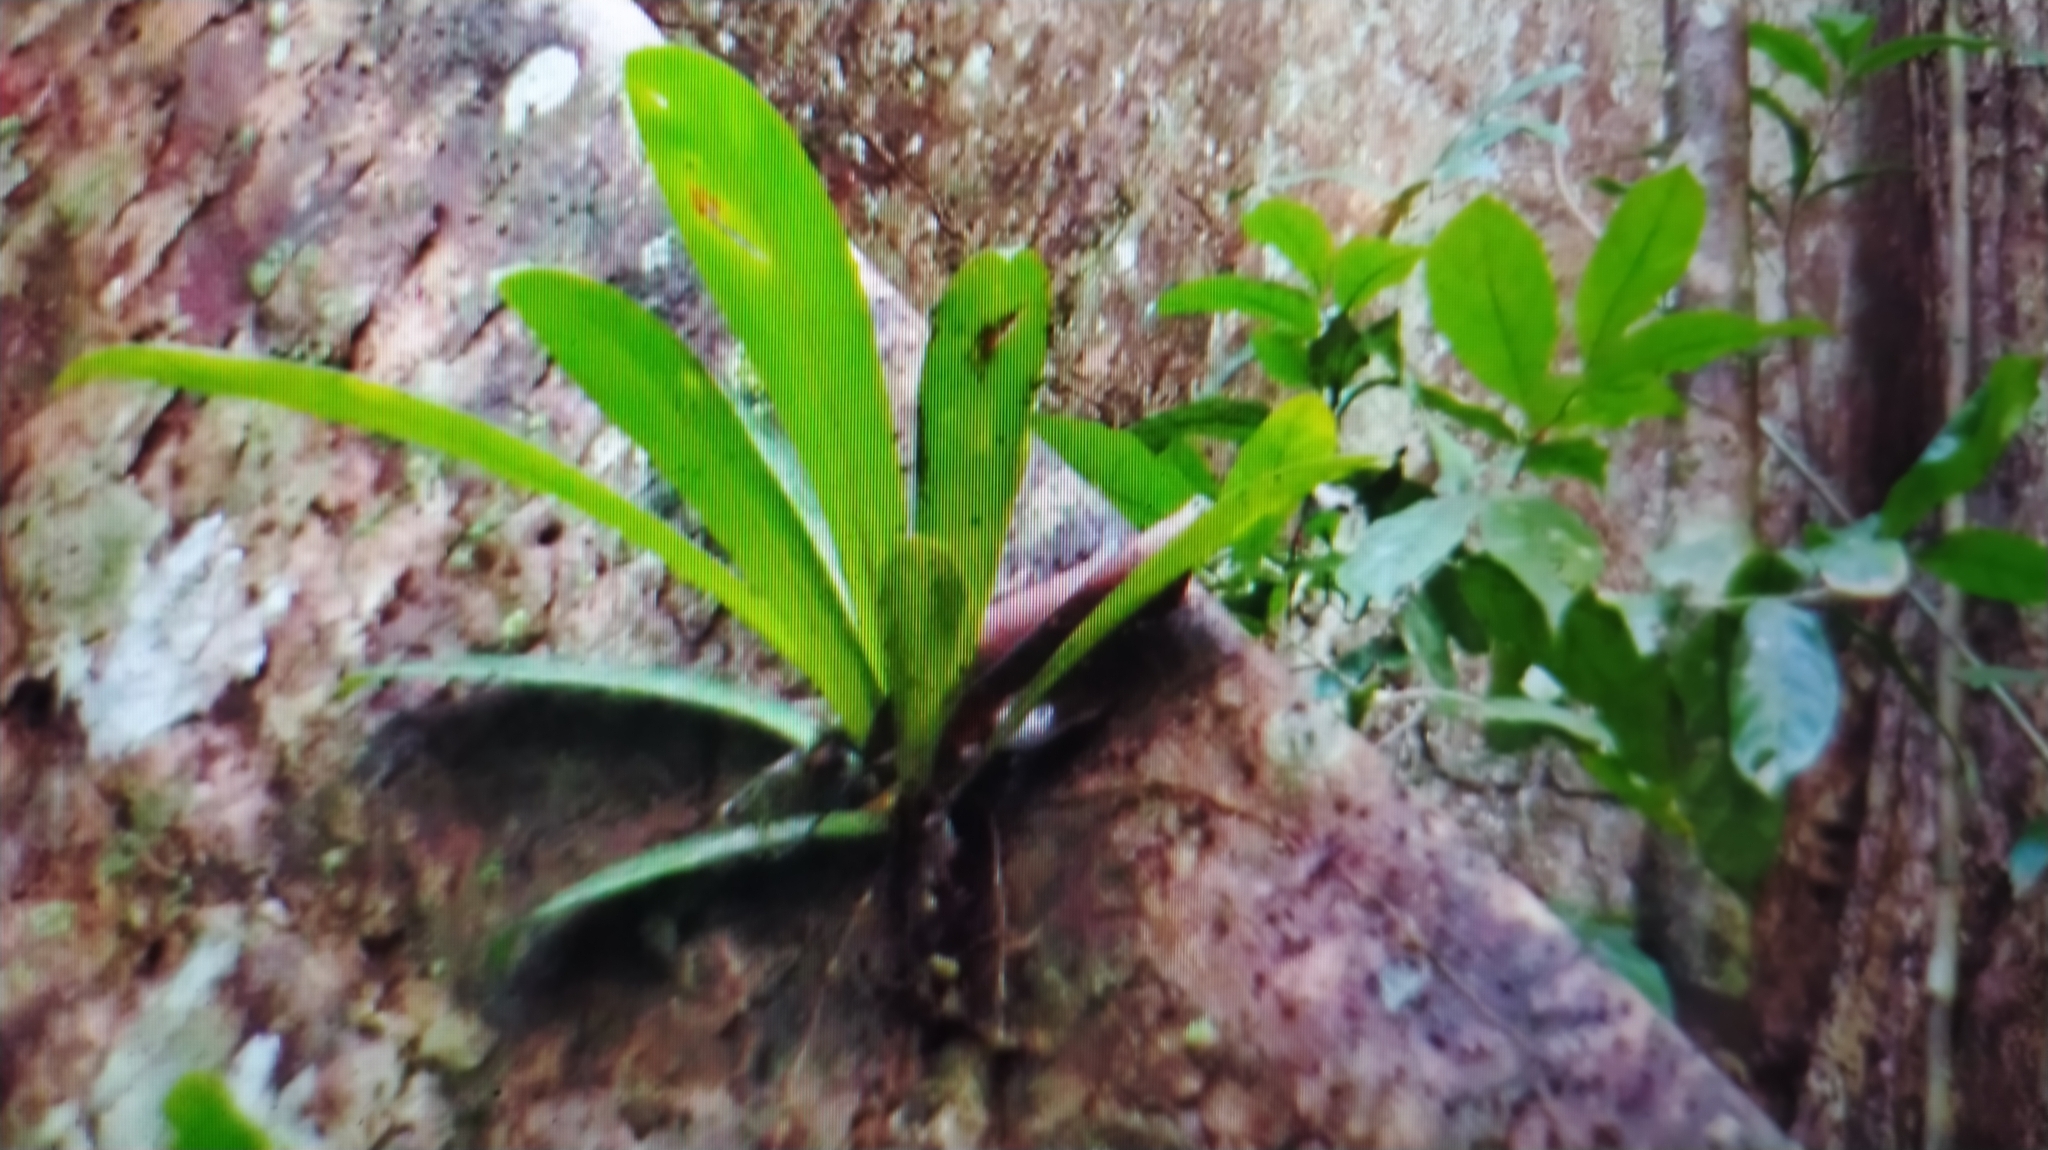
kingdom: Plantae
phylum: Tracheophyta
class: Liliopsida
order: Alismatales
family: Araceae
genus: Philodendron
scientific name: Philodendron linnaei
